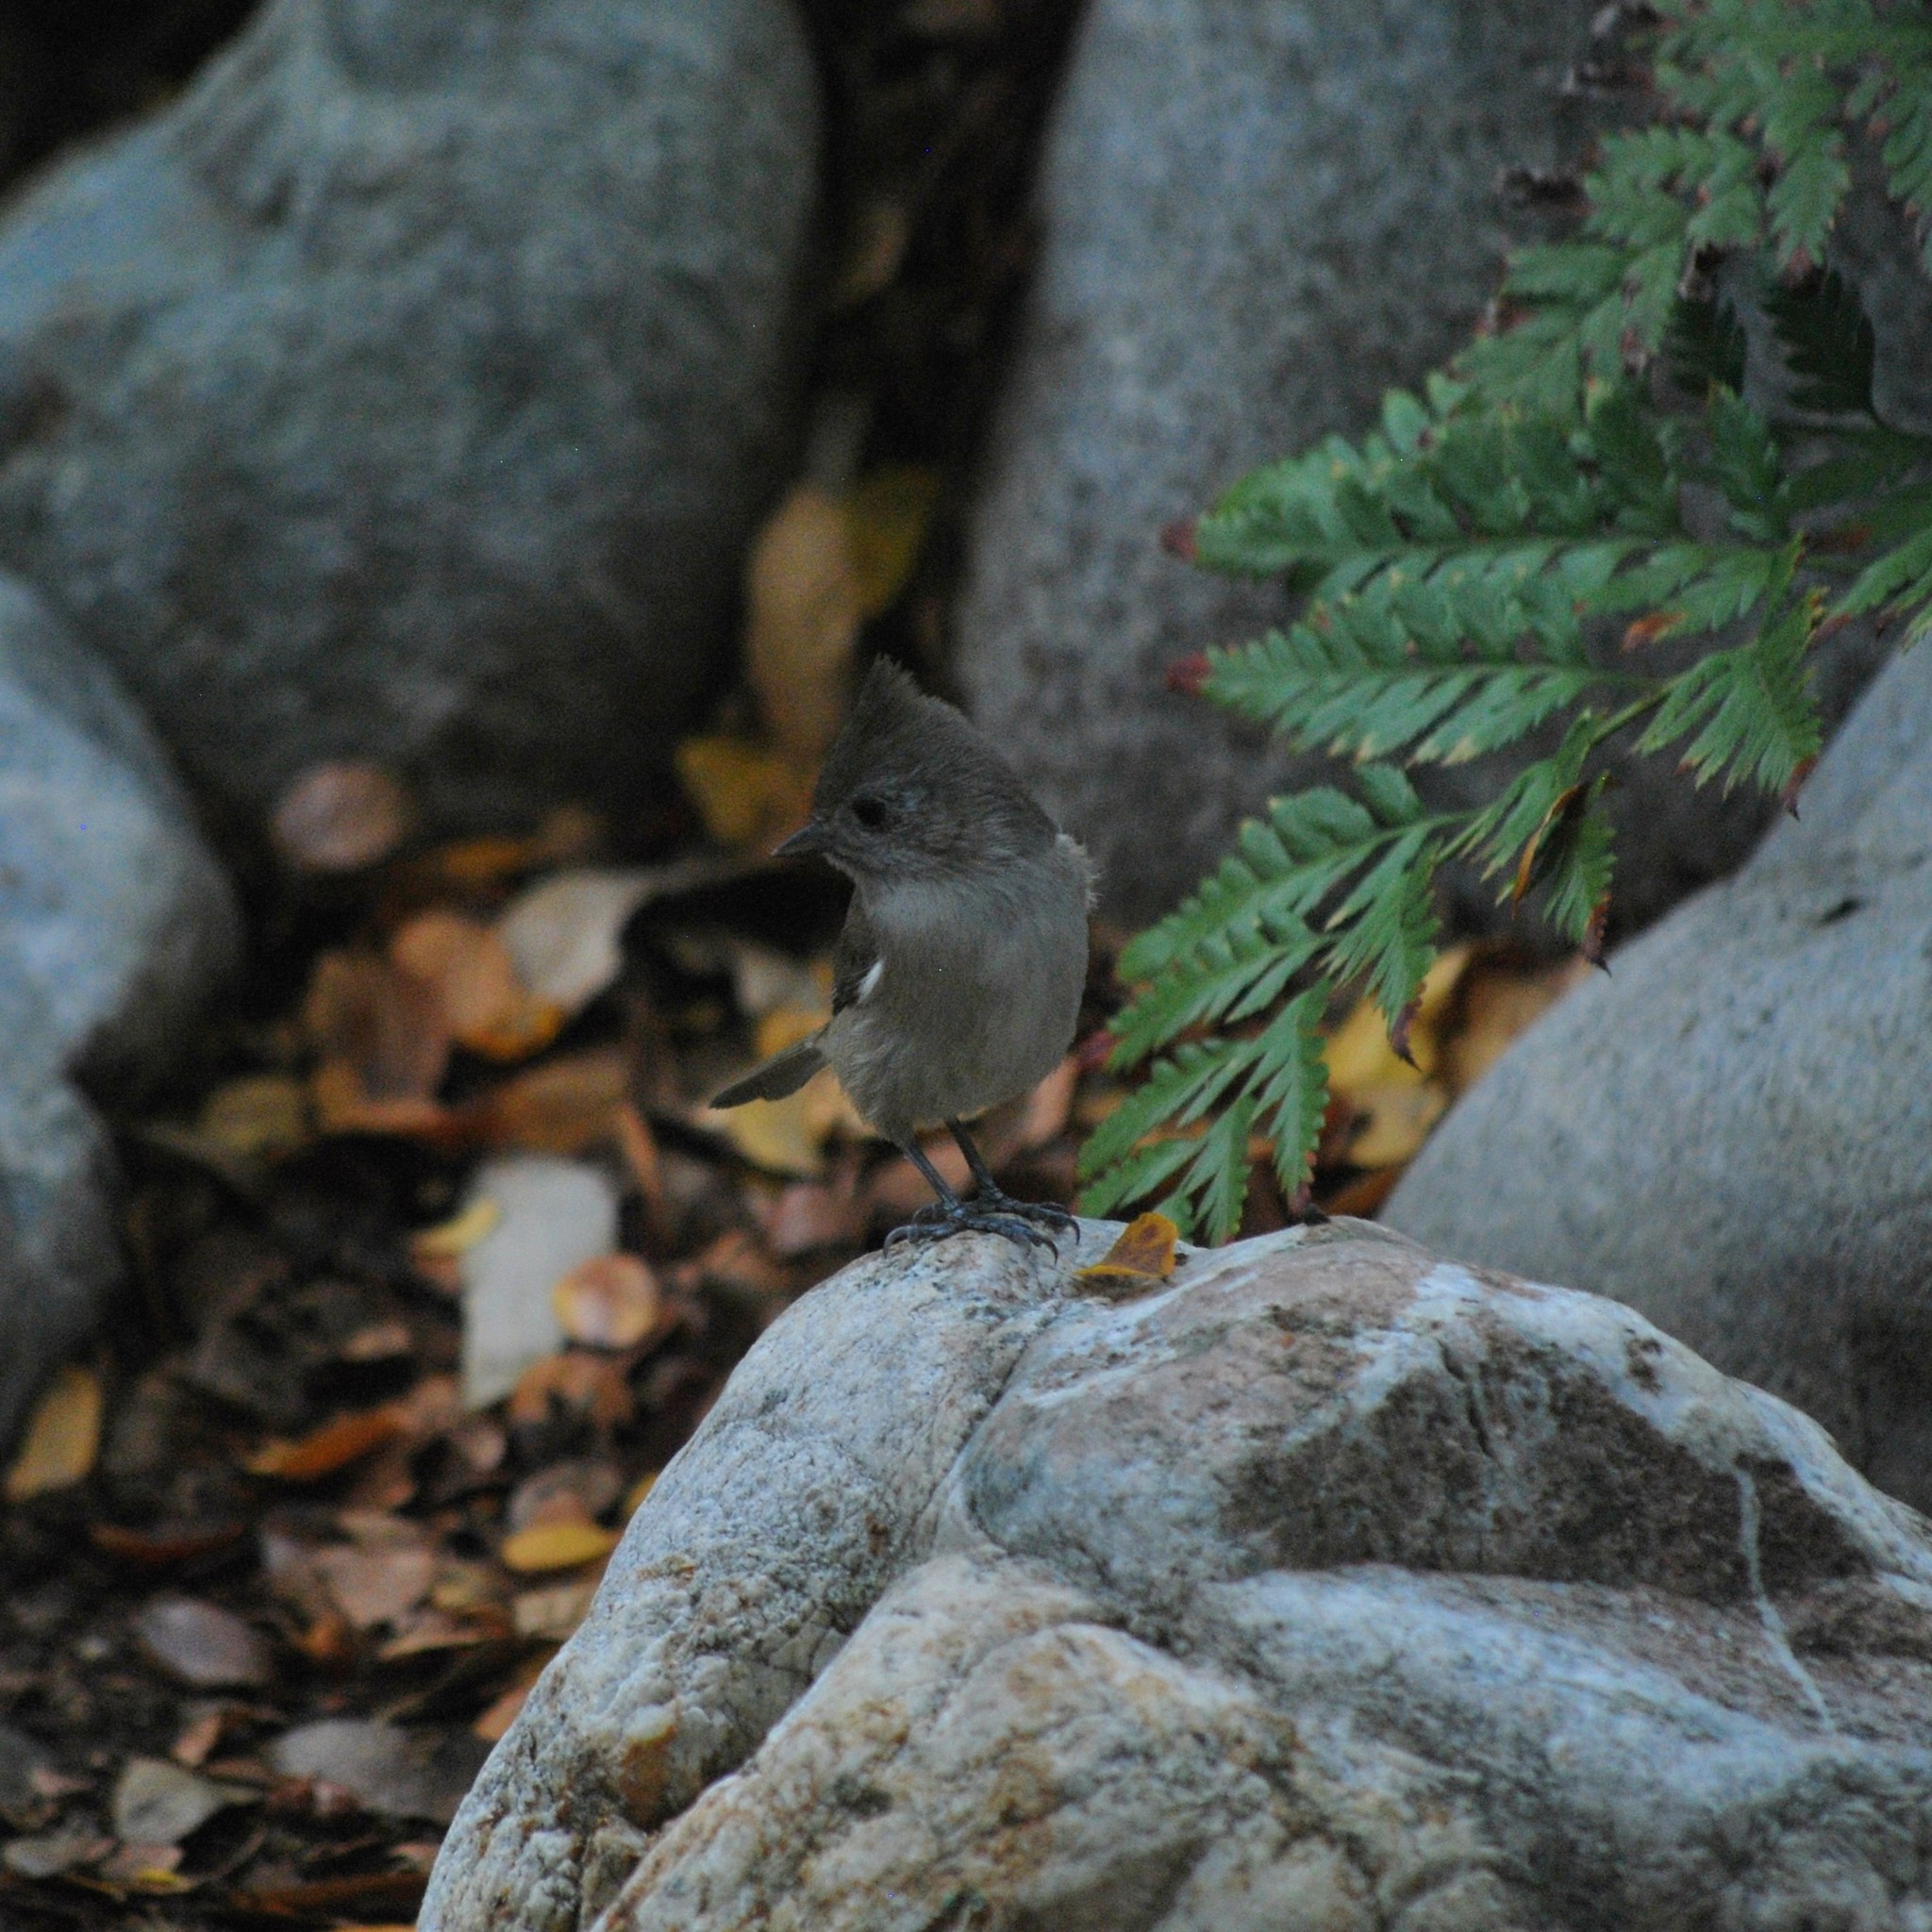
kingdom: Animalia
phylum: Chordata
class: Aves
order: Passeriformes
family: Paridae
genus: Baeolophus
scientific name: Baeolophus inornatus
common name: Oak titmouse
